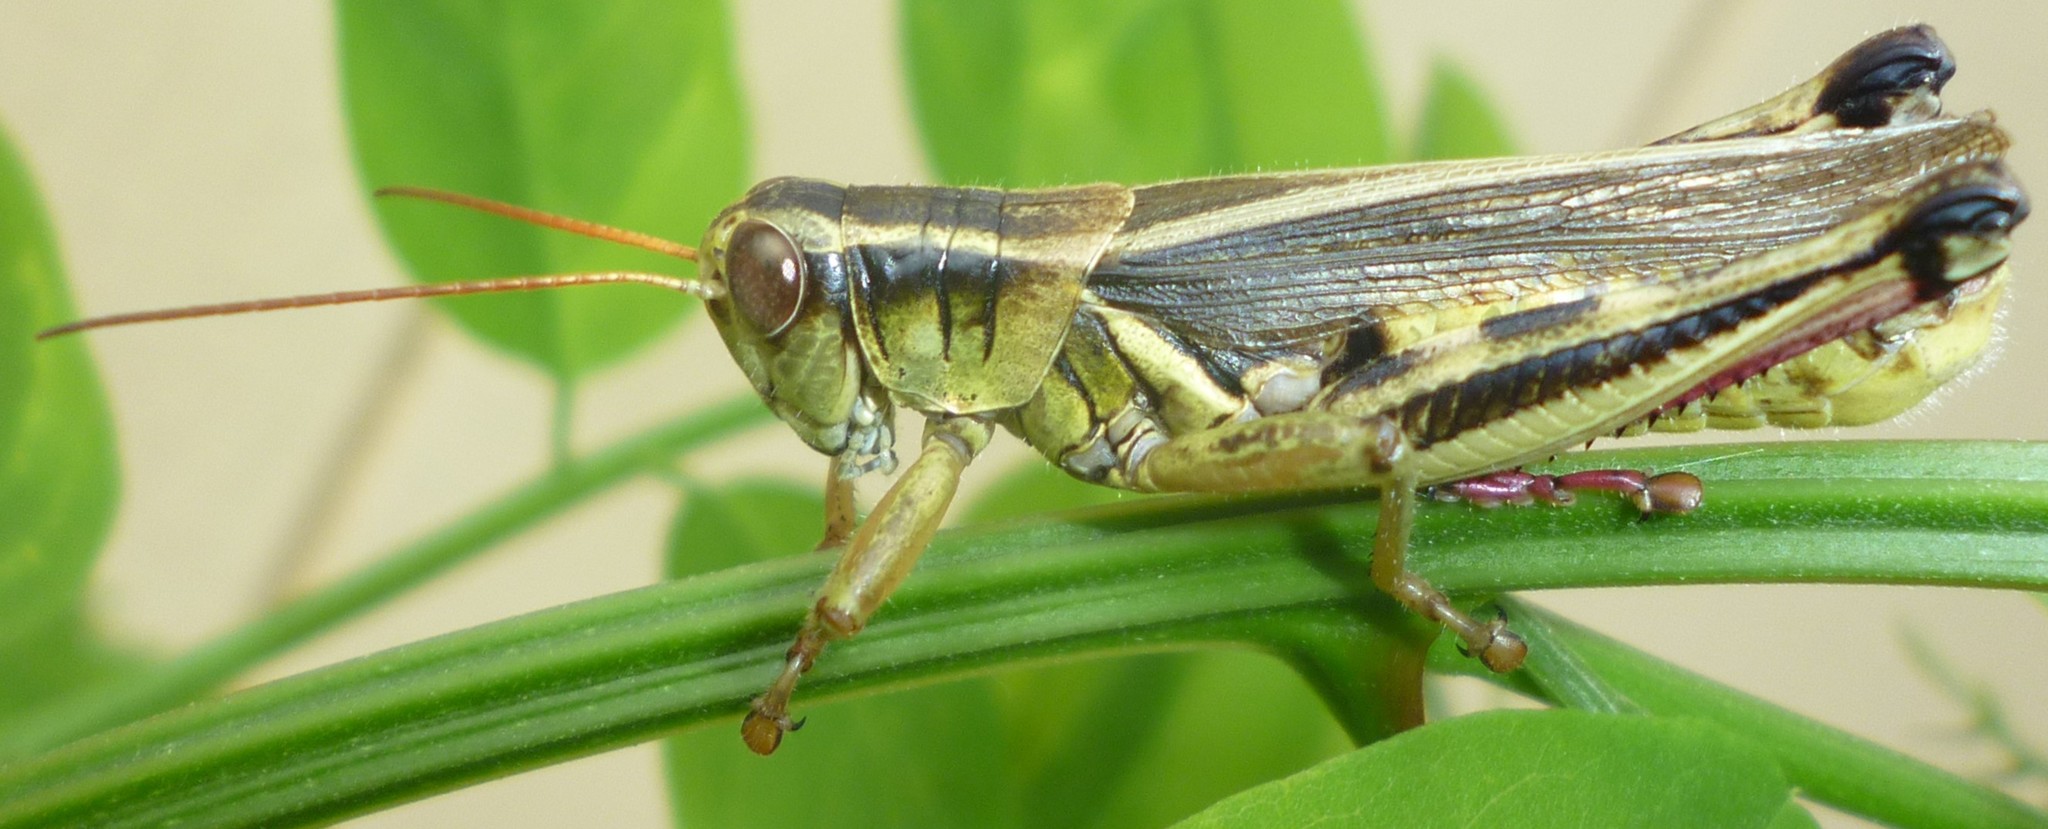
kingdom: Animalia
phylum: Arthropoda
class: Insecta
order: Orthoptera
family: Acrididae
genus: Melanoplus
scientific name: Melanoplus bivittatus
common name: Two-striped grasshopper
